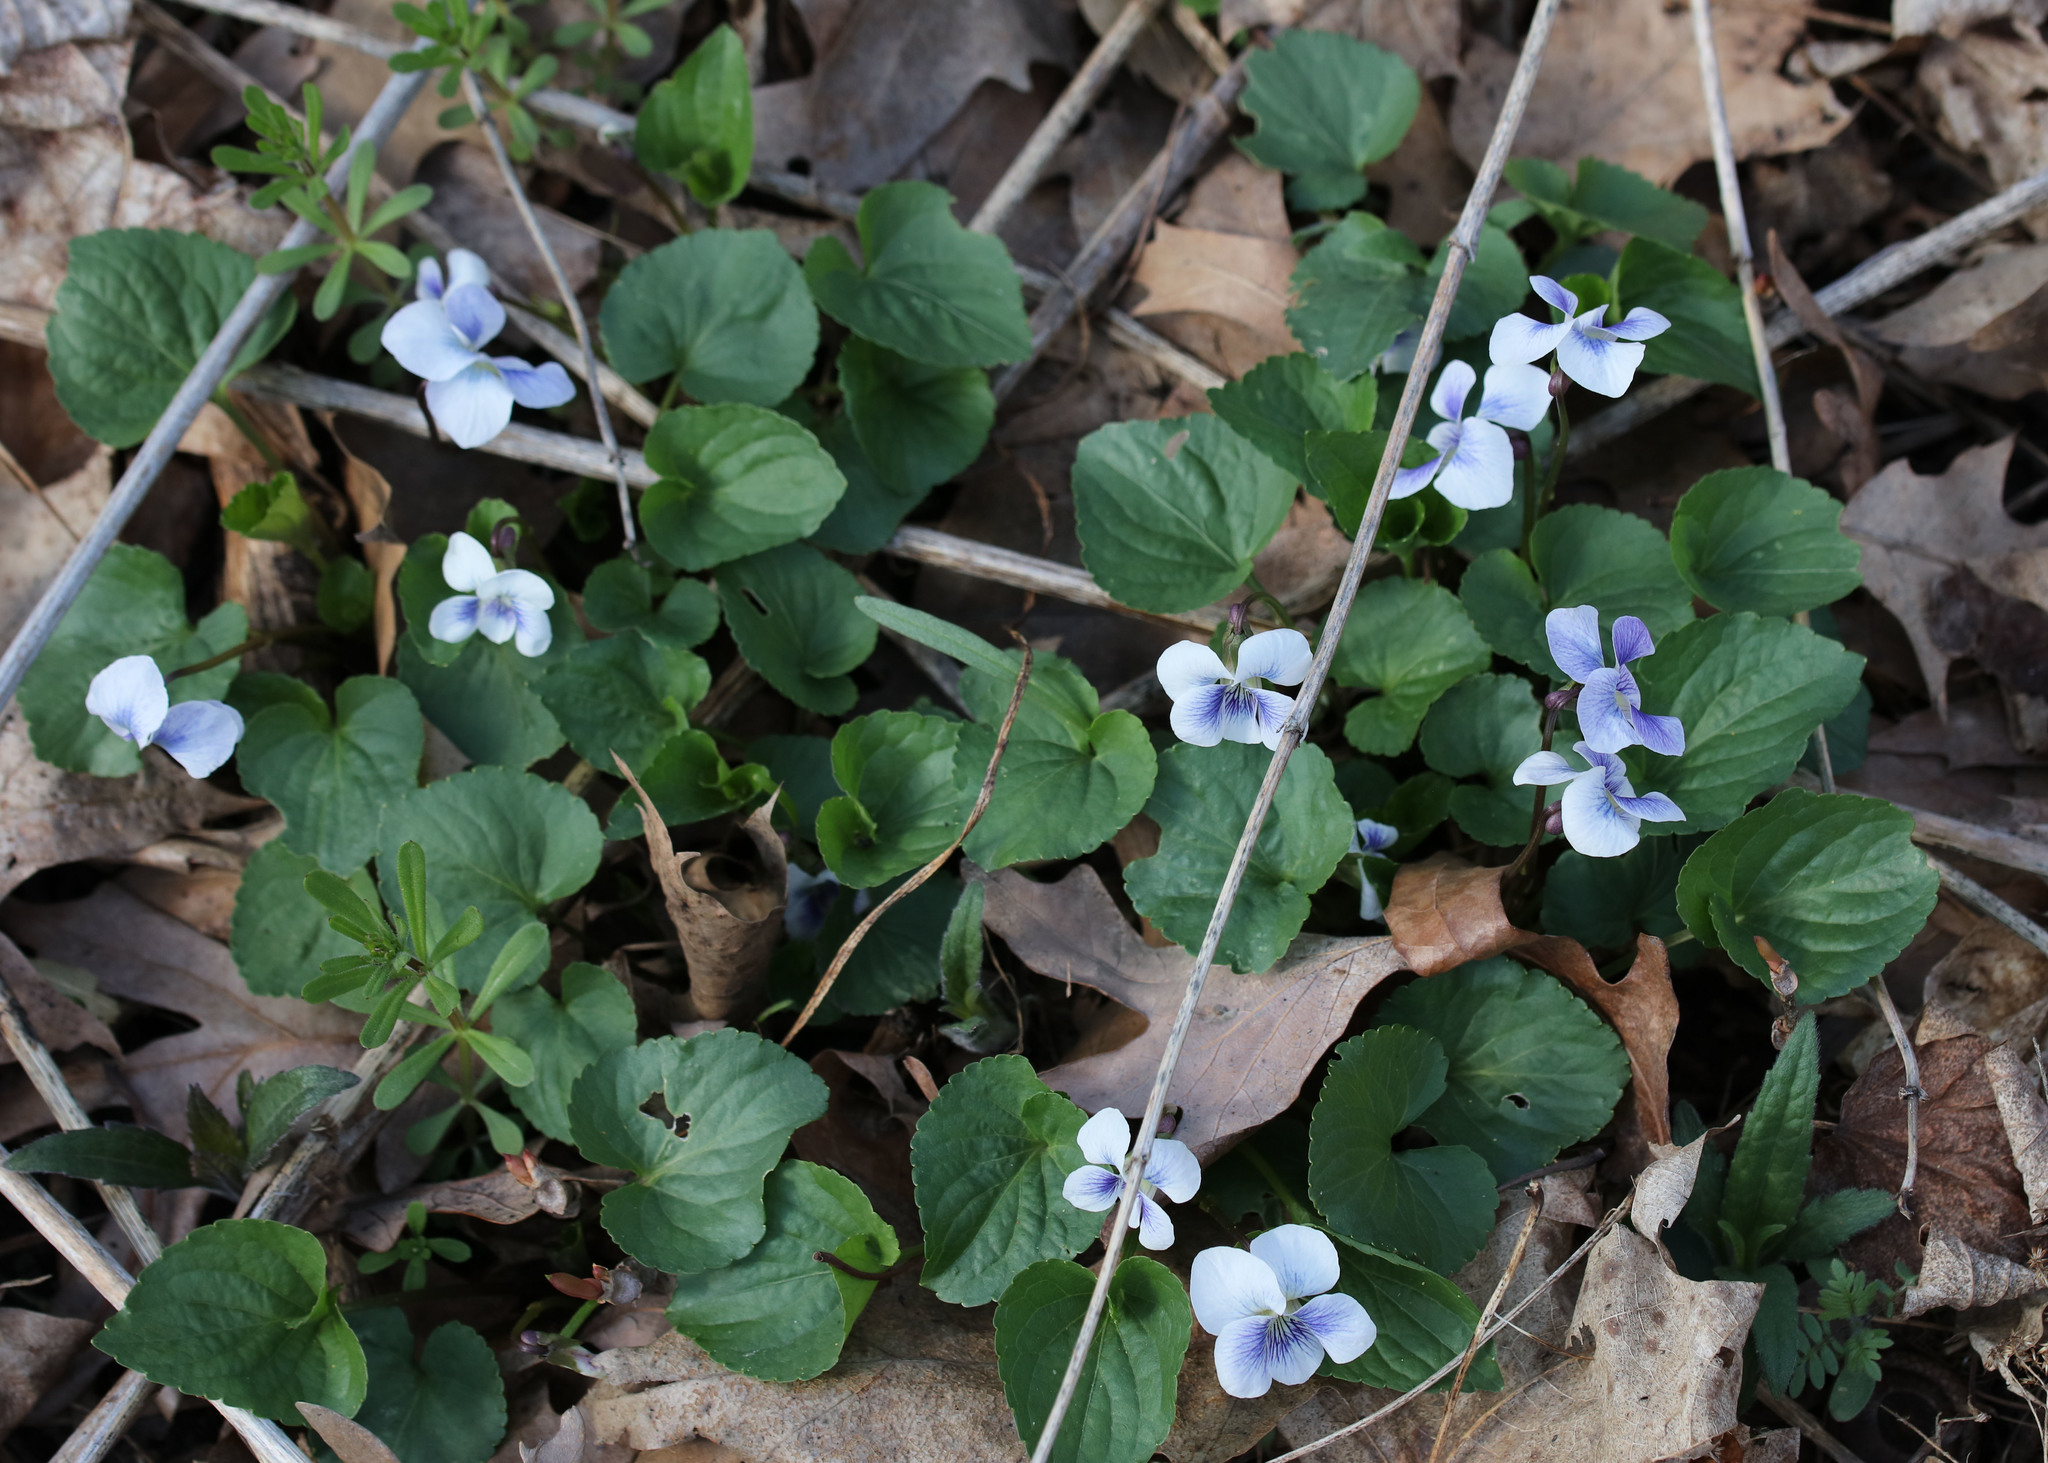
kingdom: Plantae
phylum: Tracheophyta
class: Magnoliopsida
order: Malpighiales
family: Violaceae
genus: Viola
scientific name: Viola sororia
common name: Dooryard violet
